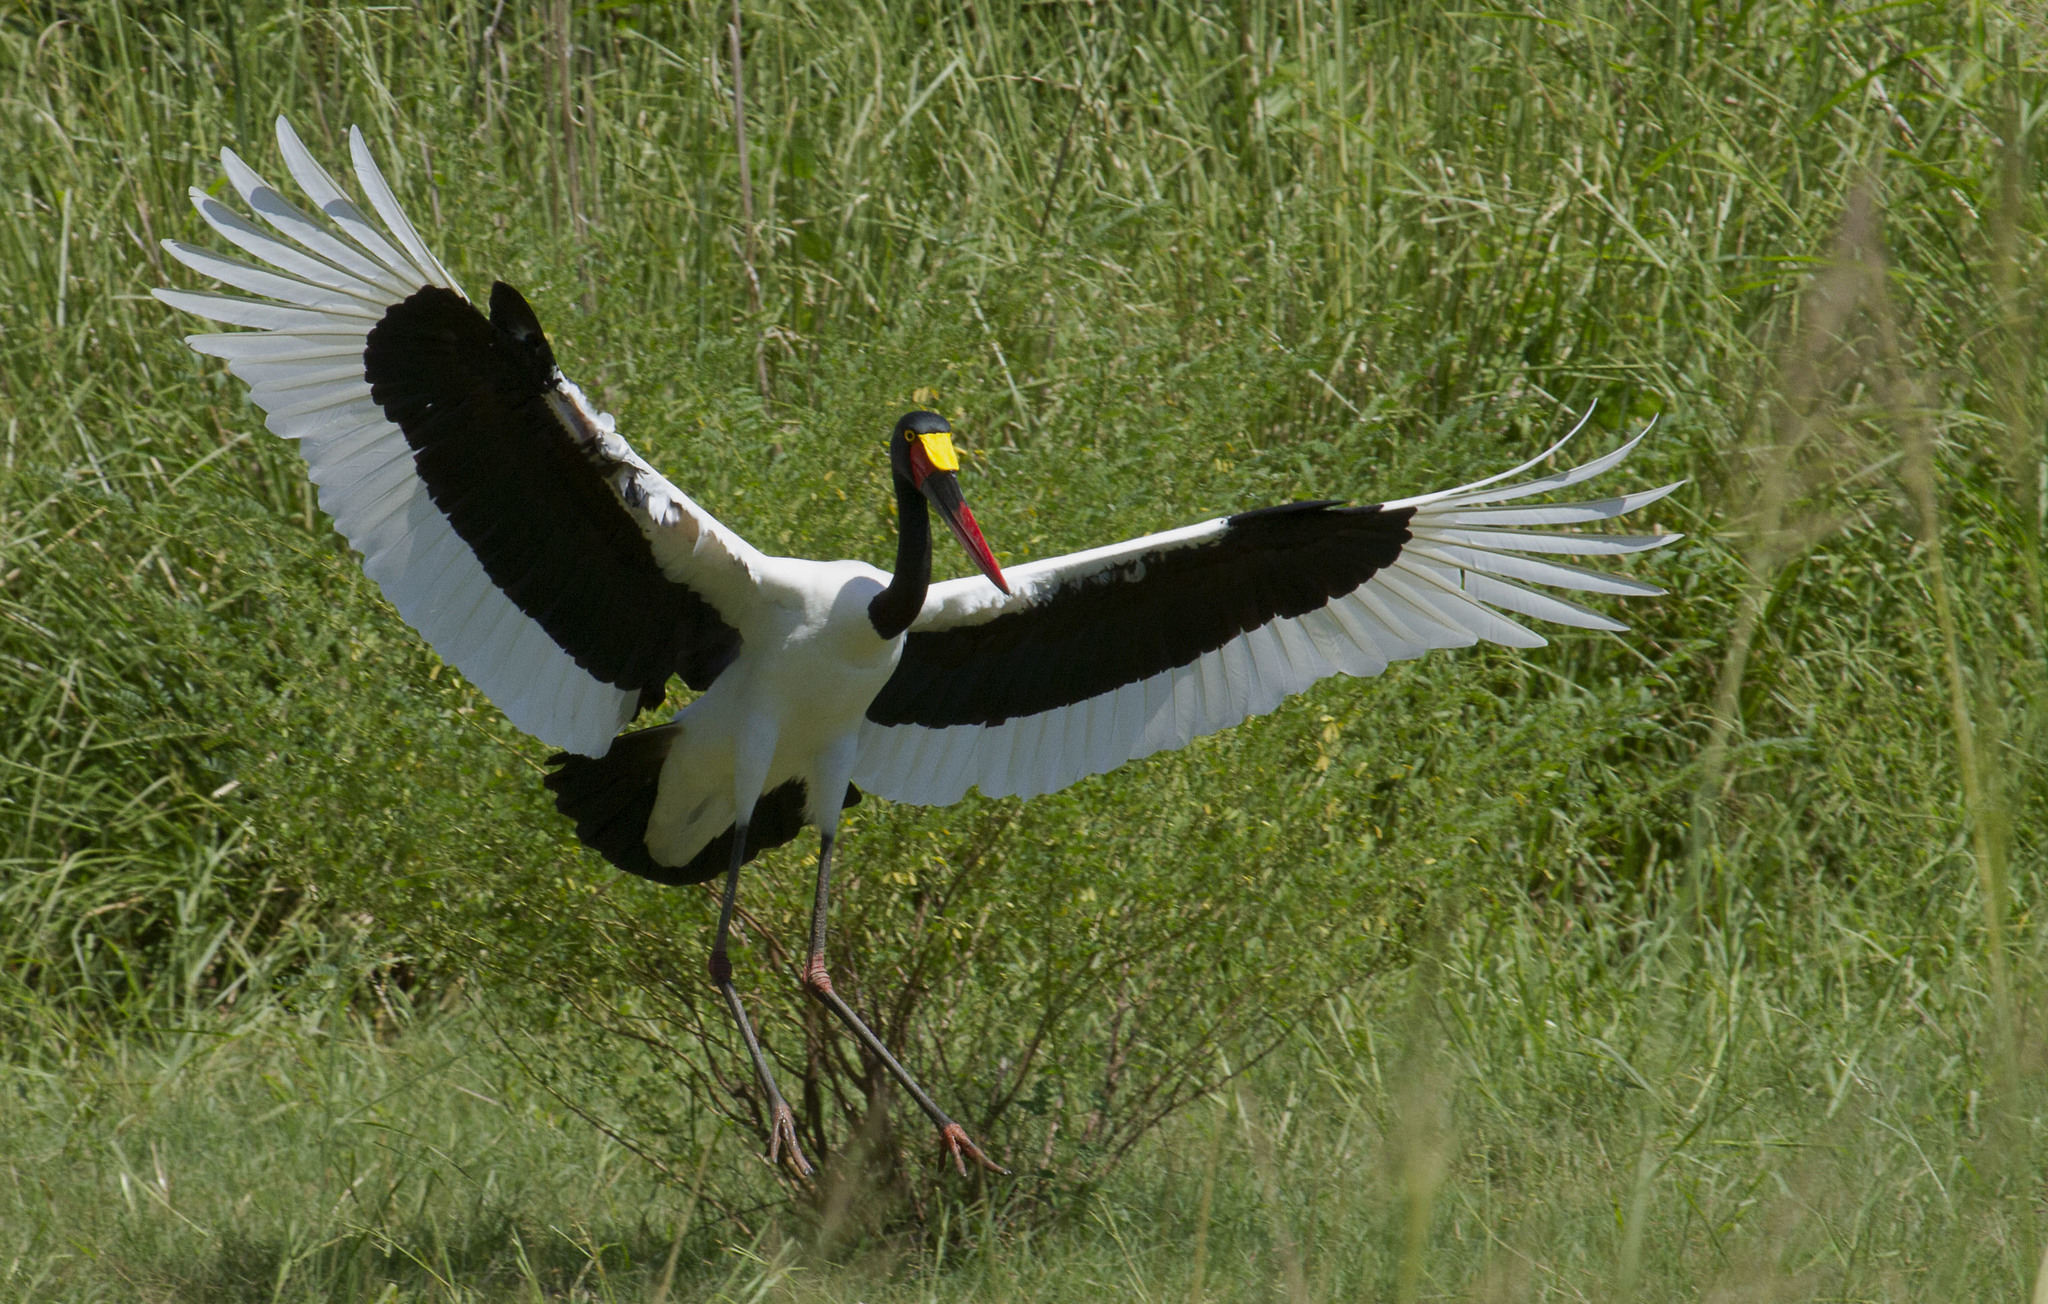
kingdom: Animalia
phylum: Chordata
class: Aves
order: Ciconiiformes
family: Ciconiidae
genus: Ephippiorhynchus
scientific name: Ephippiorhynchus senegalensis
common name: Saddle-billed stork
